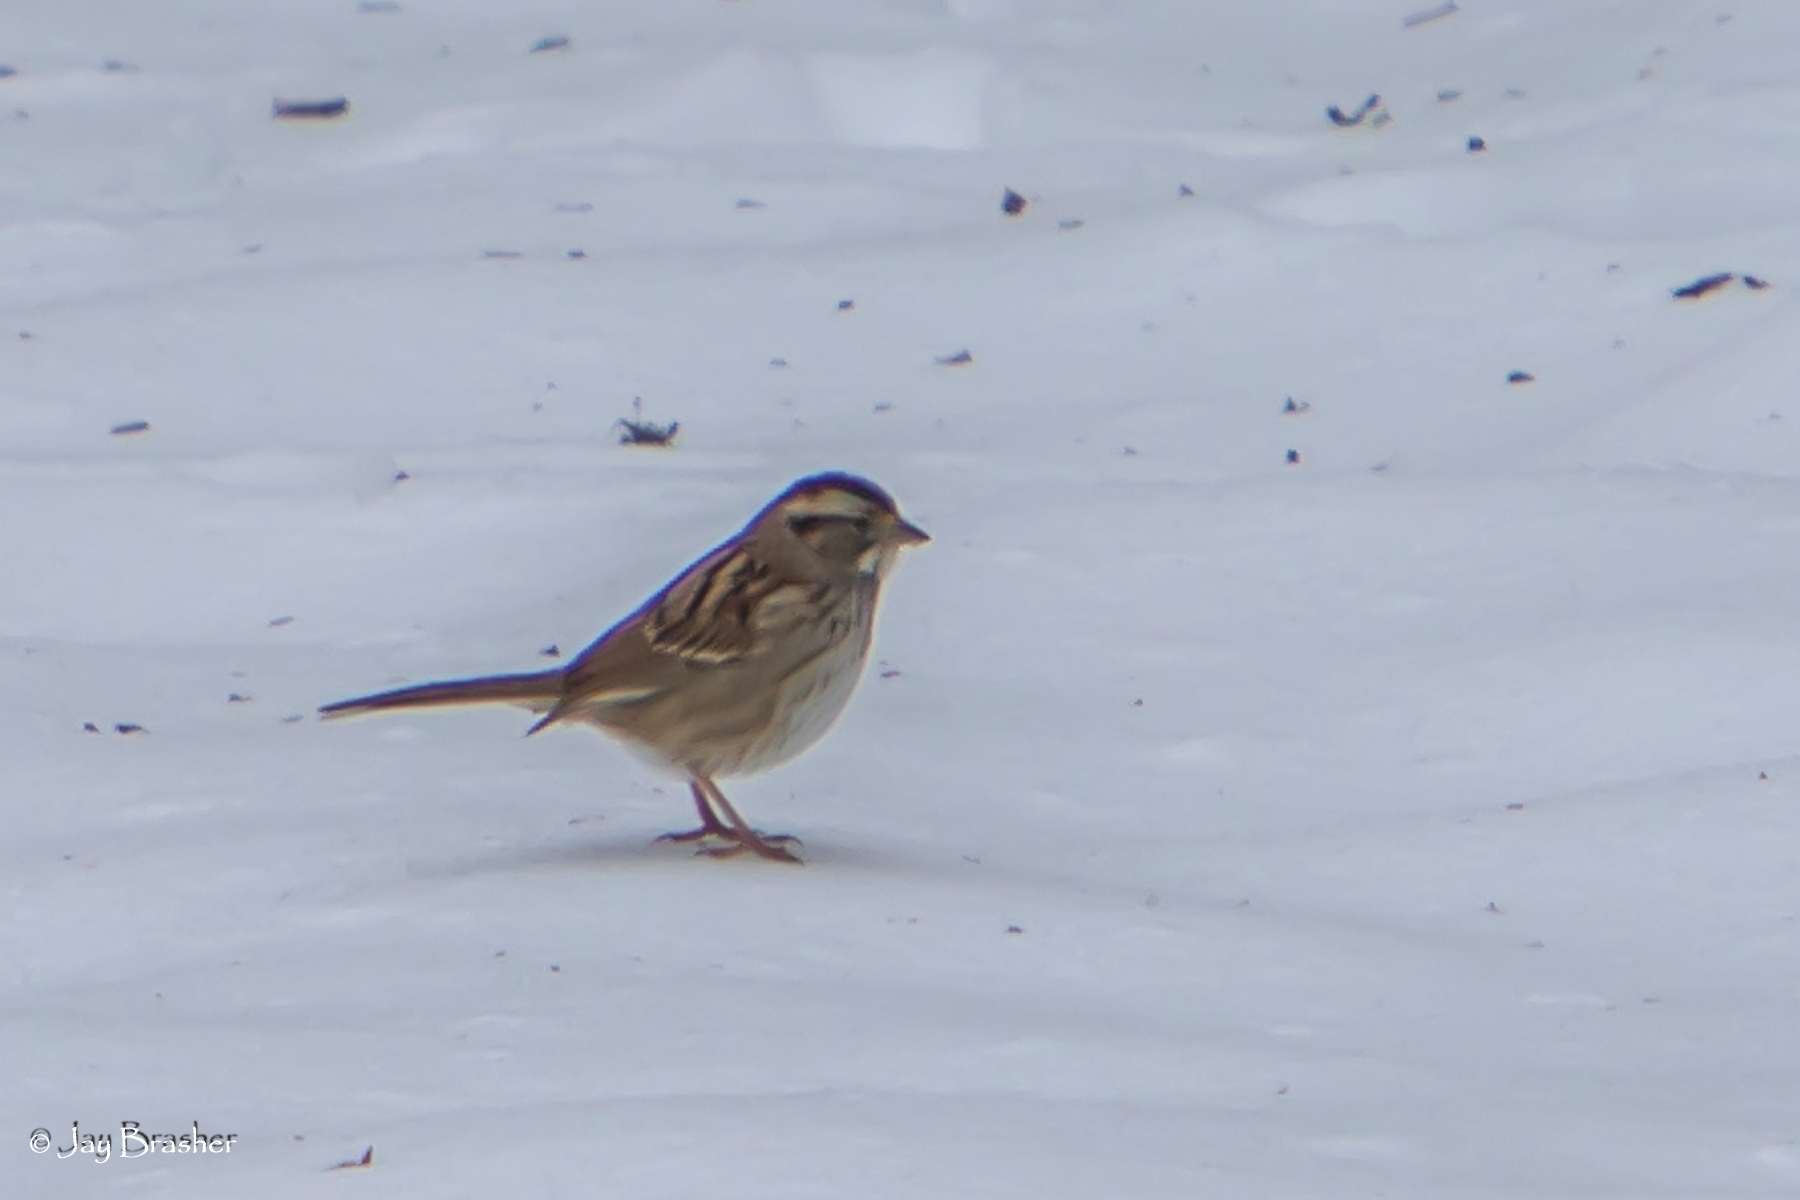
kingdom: Animalia
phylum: Chordata
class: Aves
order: Passeriformes
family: Passerellidae
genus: Zonotrichia
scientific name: Zonotrichia albicollis
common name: White-throated sparrow
